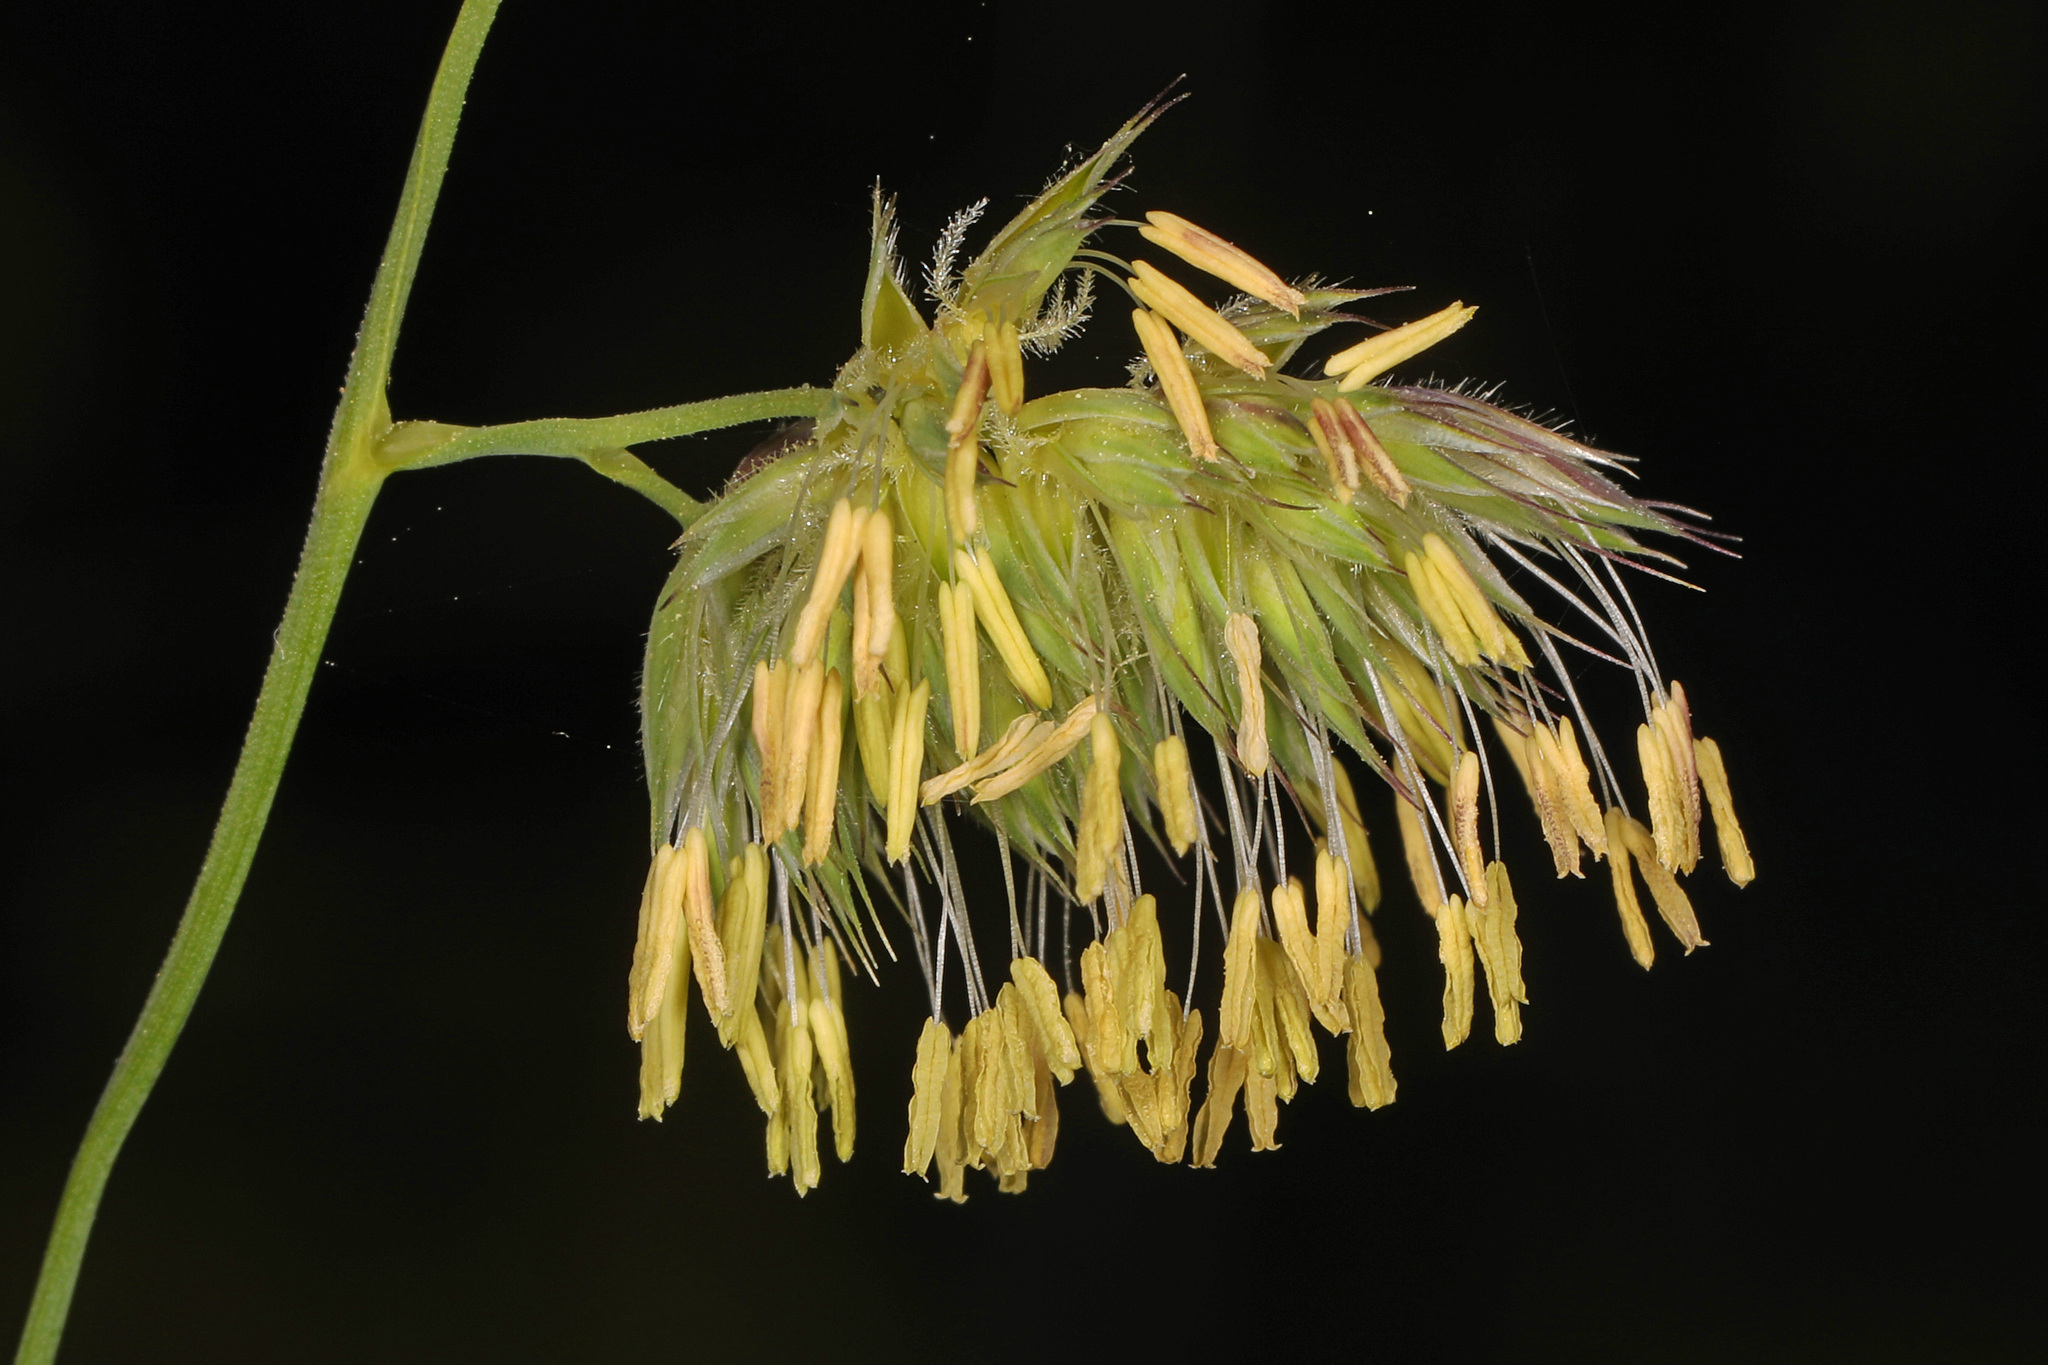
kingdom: Plantae
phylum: Tracheophyta
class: Liliopsida
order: Poales
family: Poaceae
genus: Dactylis
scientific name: Dactylis glomerata
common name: Orchardgrass
